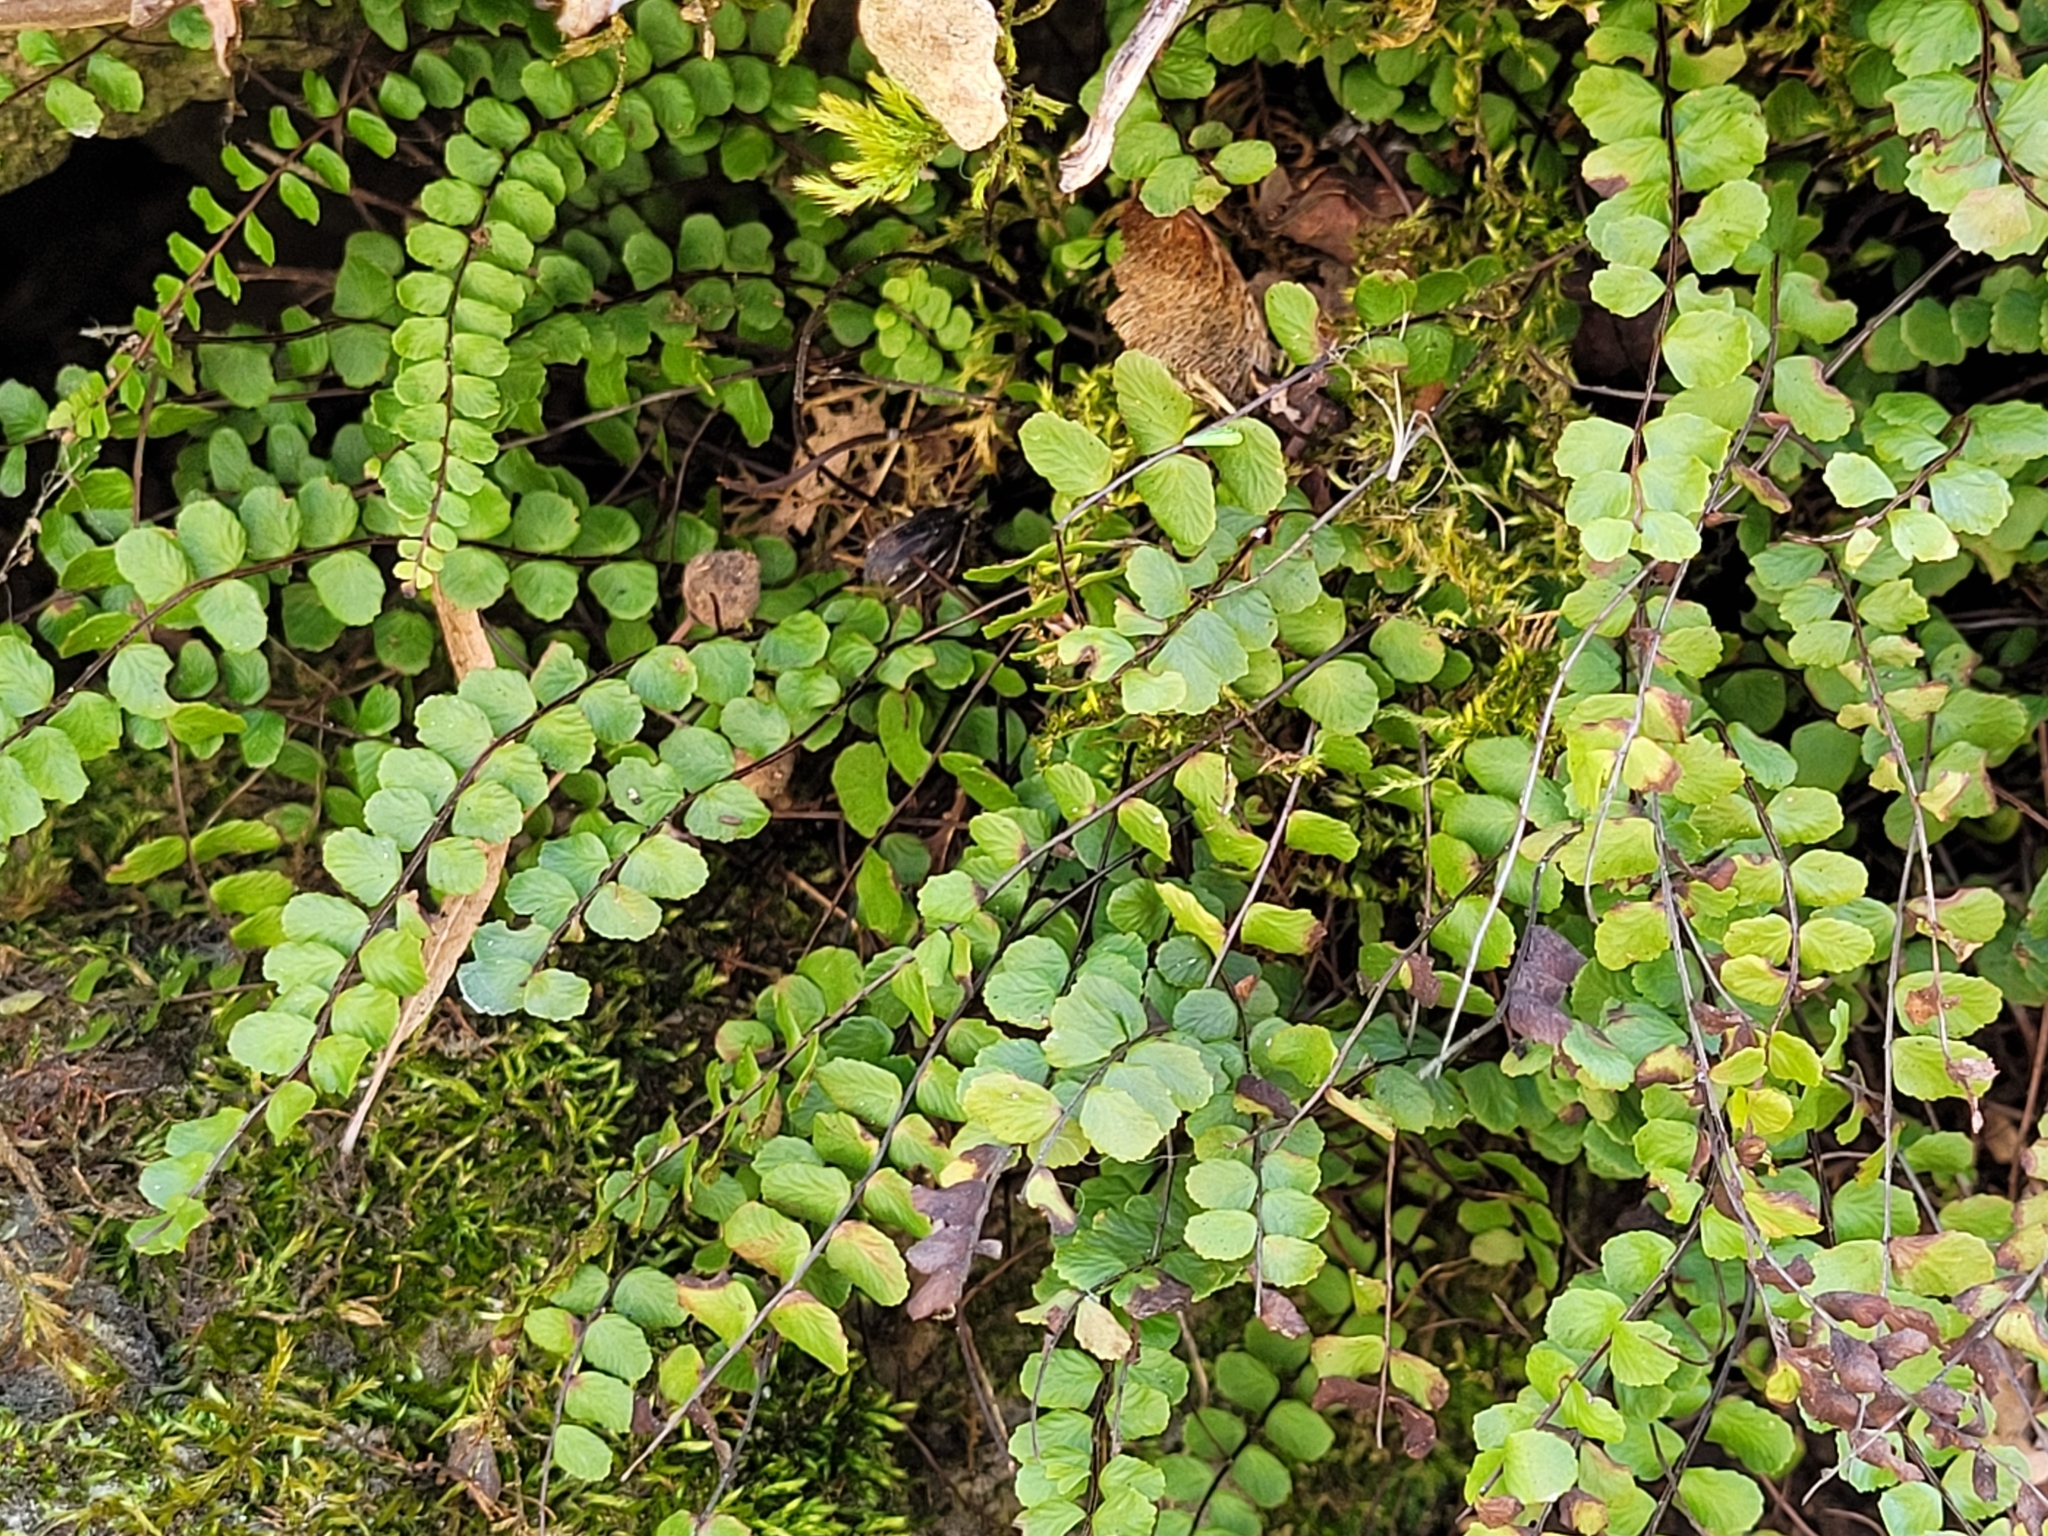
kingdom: Plantae
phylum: Tracheophyta
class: Polypodiopsida
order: Polypodiales
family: Aspleniaceae
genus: Asplenium
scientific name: Asplenium trichomanes
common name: Maidenhair spleenwort
